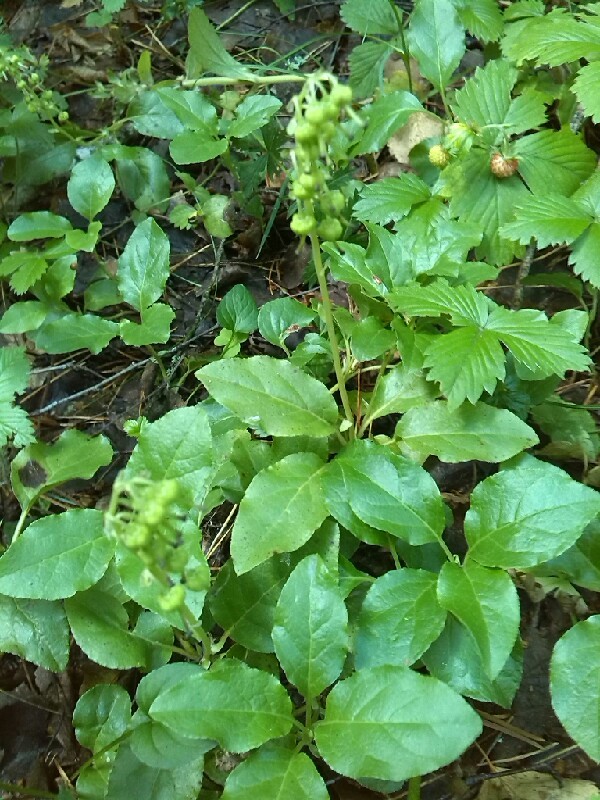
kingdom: Plantae
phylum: Tracheophyta
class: Magnoliopsida
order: Ericales
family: Ericaceae
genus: Orthilia
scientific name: Orthilia secunda
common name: One-sided orthilia
